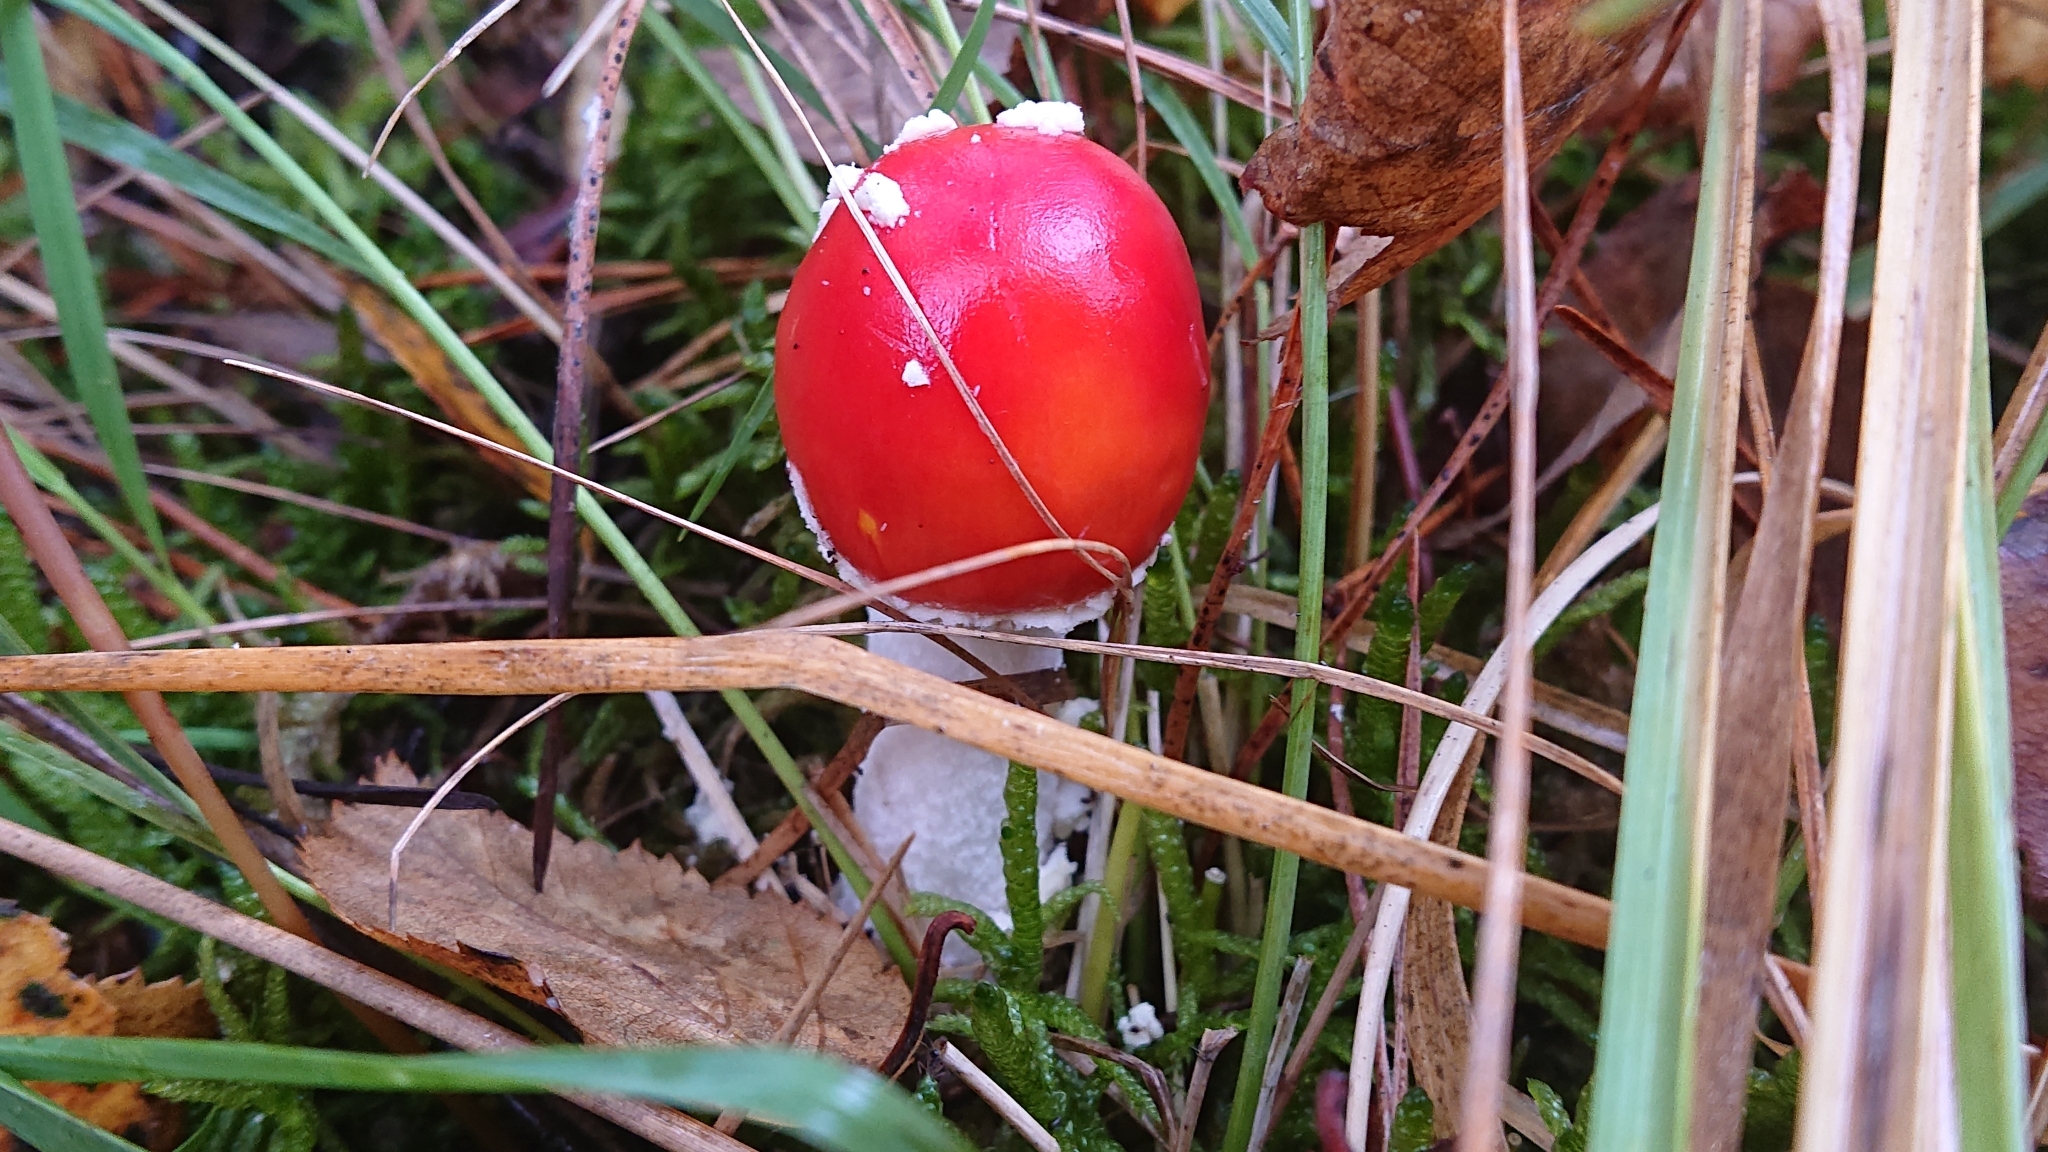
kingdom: Fungi
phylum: Basidiomycota
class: Agaricomycetes
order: Agaricales
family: Amanitaceae
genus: Amanita
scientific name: Amanita muscaria
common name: Fly agaric
